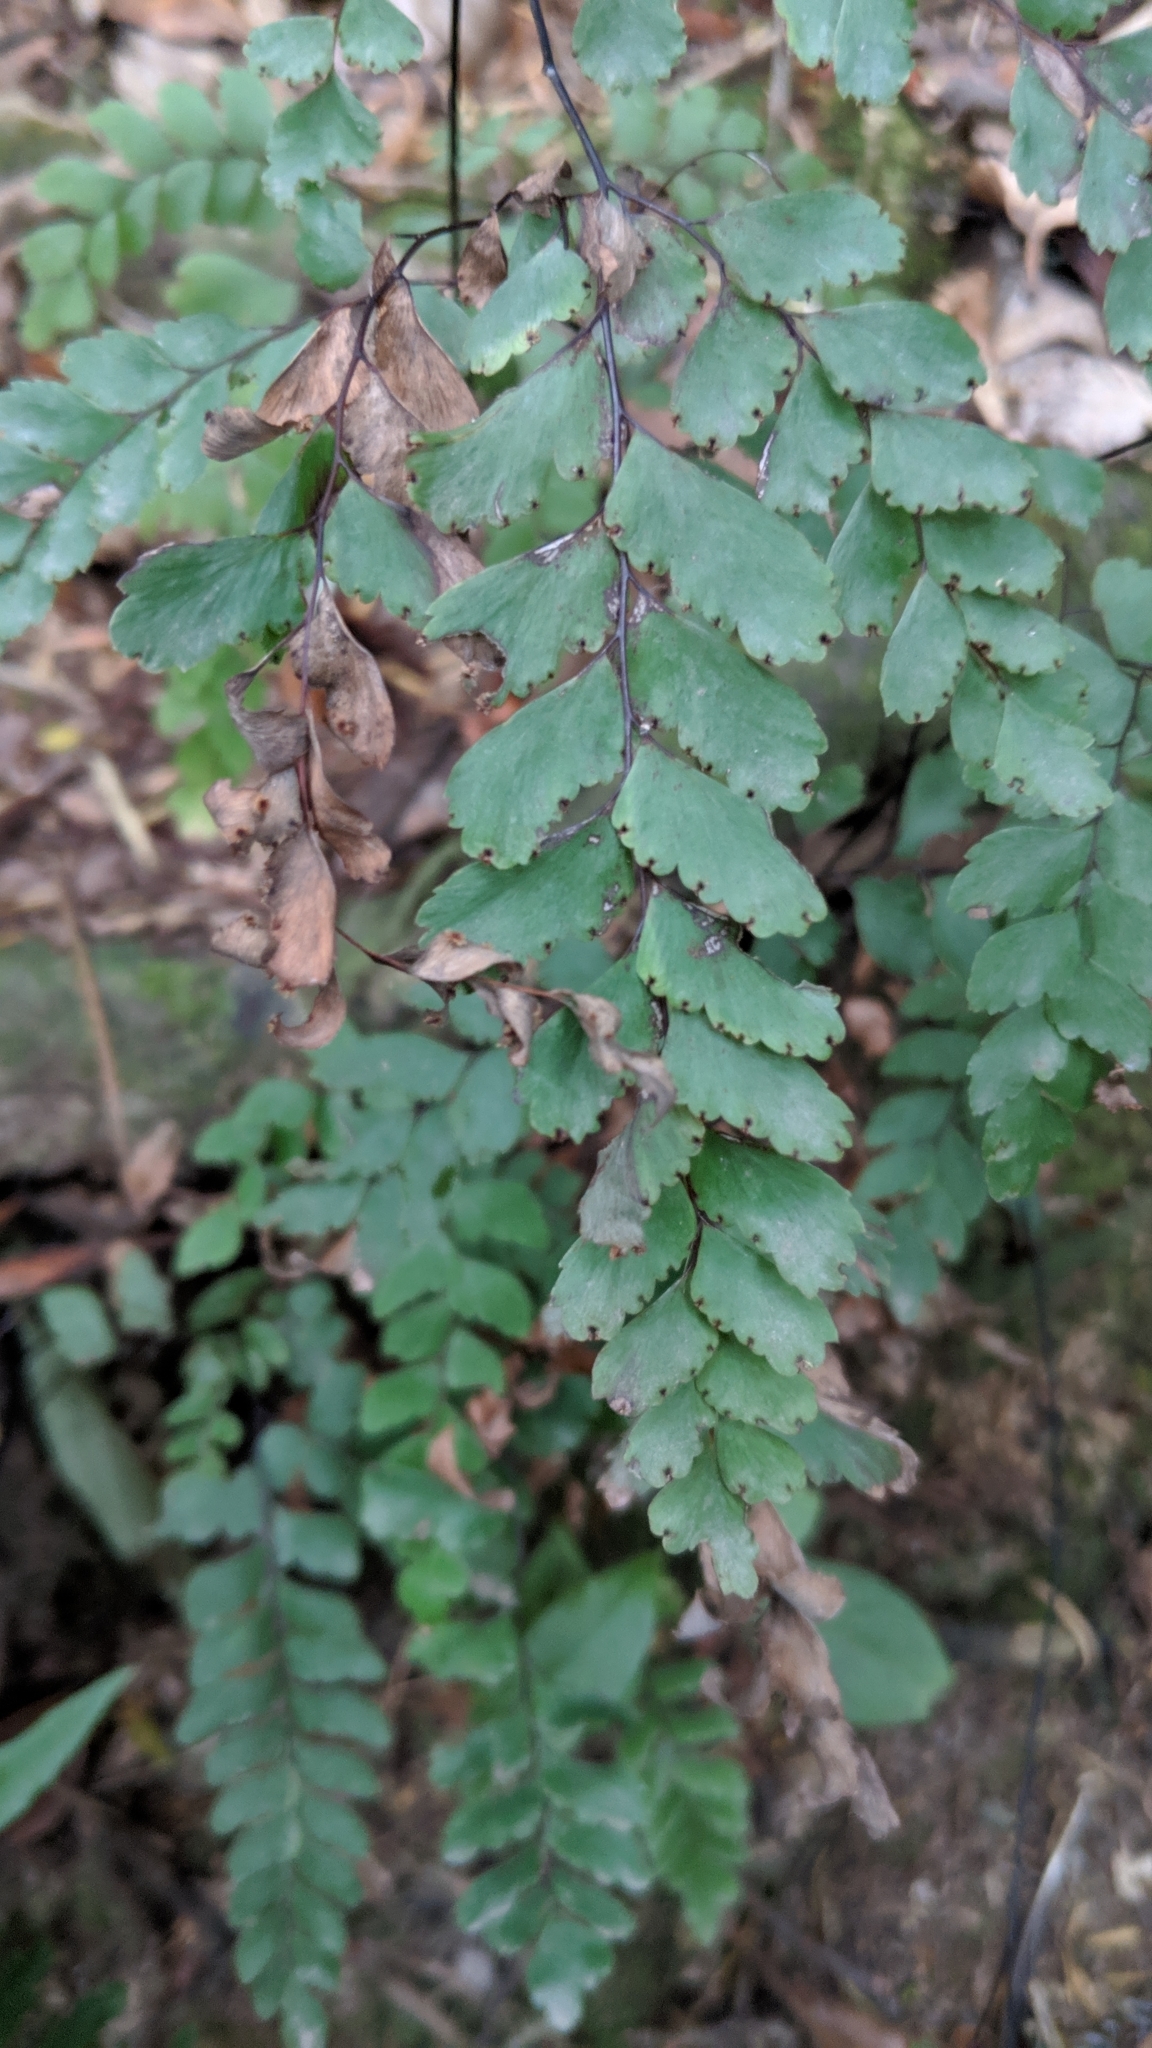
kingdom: Plantae
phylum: Tracheophyta
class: Polypodiopsida
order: Polypodiales
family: Pteridaceae
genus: Adiantum
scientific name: Adiantum cunninghamii
